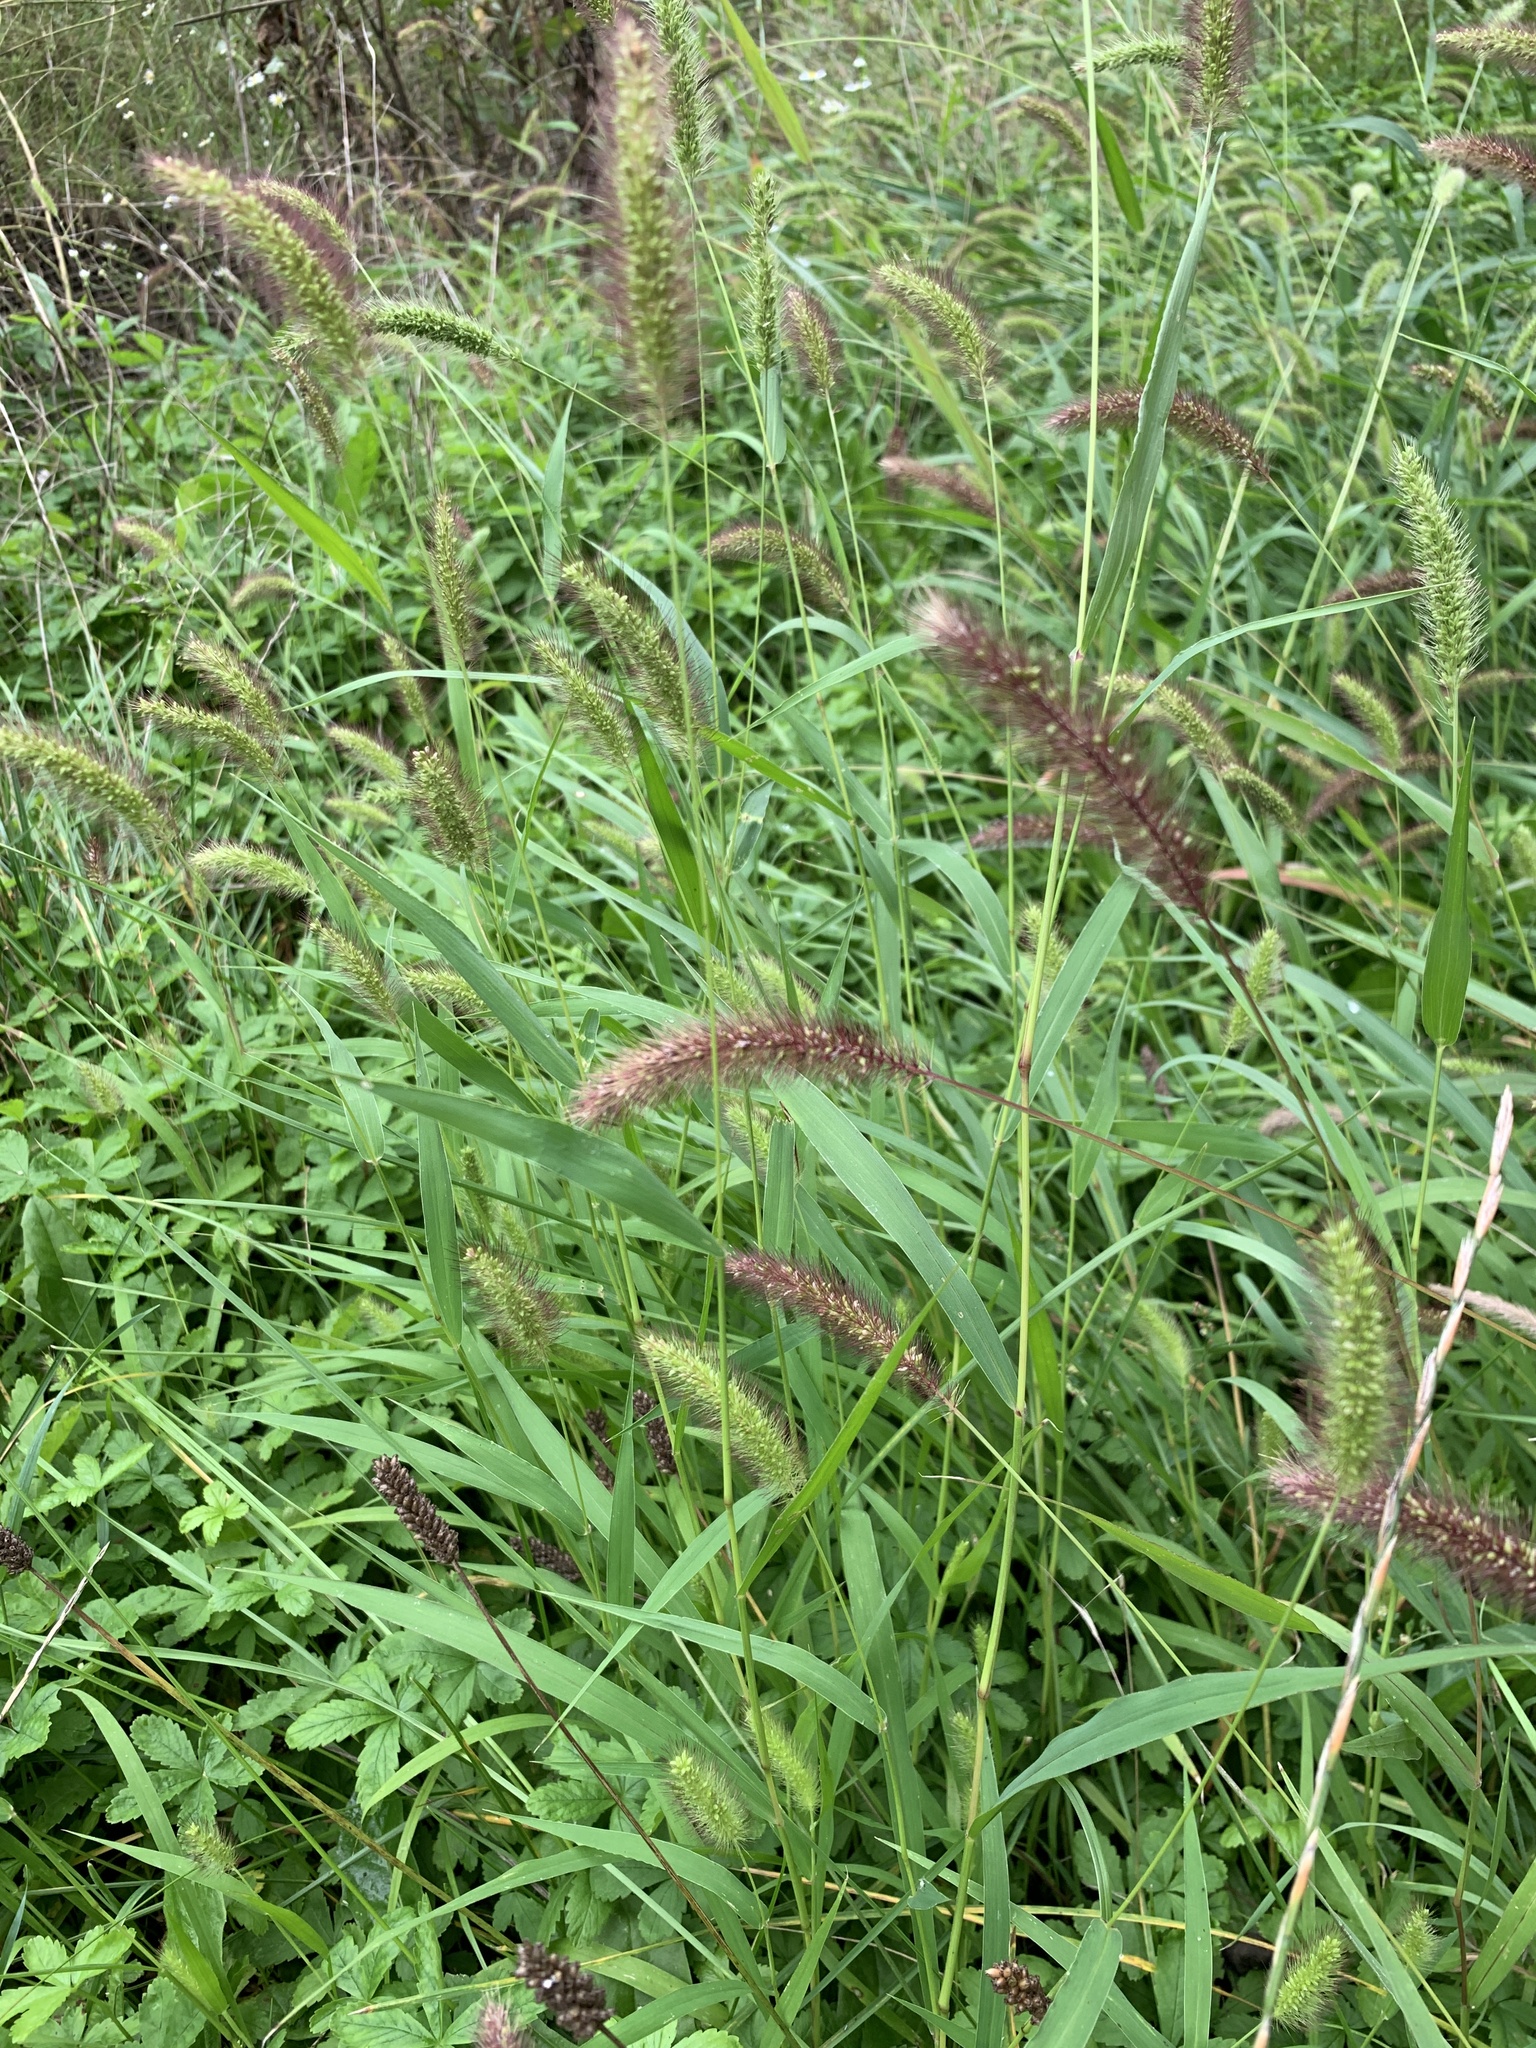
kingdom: Plantae
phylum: Tracheophyta
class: Liliopsida
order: Poales
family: Poaceae
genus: Setaria
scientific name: Setaria viridis
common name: Green bristlegrass
